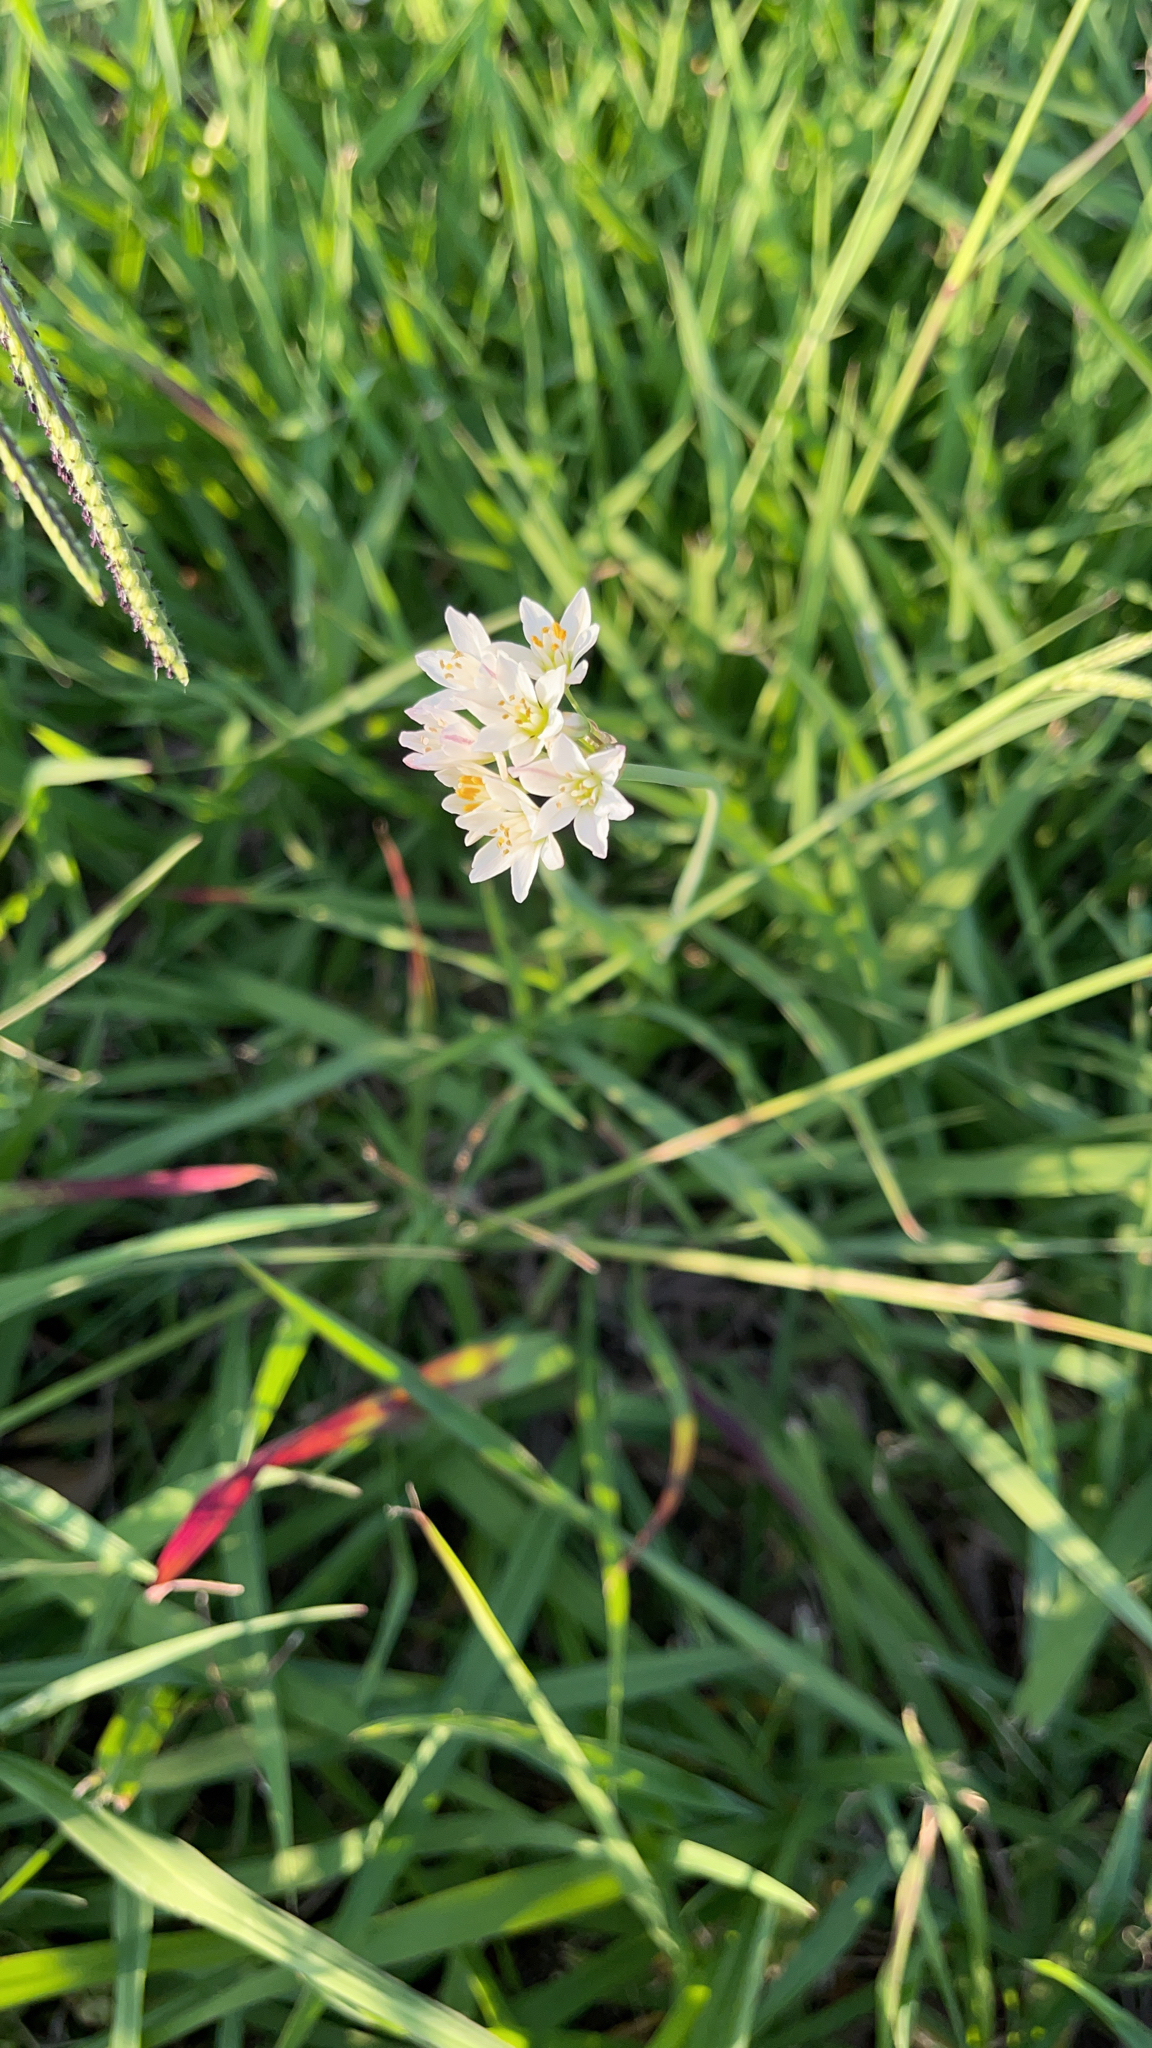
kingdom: Plantae
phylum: Tracheophyta
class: Liliopsida
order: Asparagales
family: Amaryllidaceae
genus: Nothoscordum
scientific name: Nothoscordum bivalve
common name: Crow-poison
